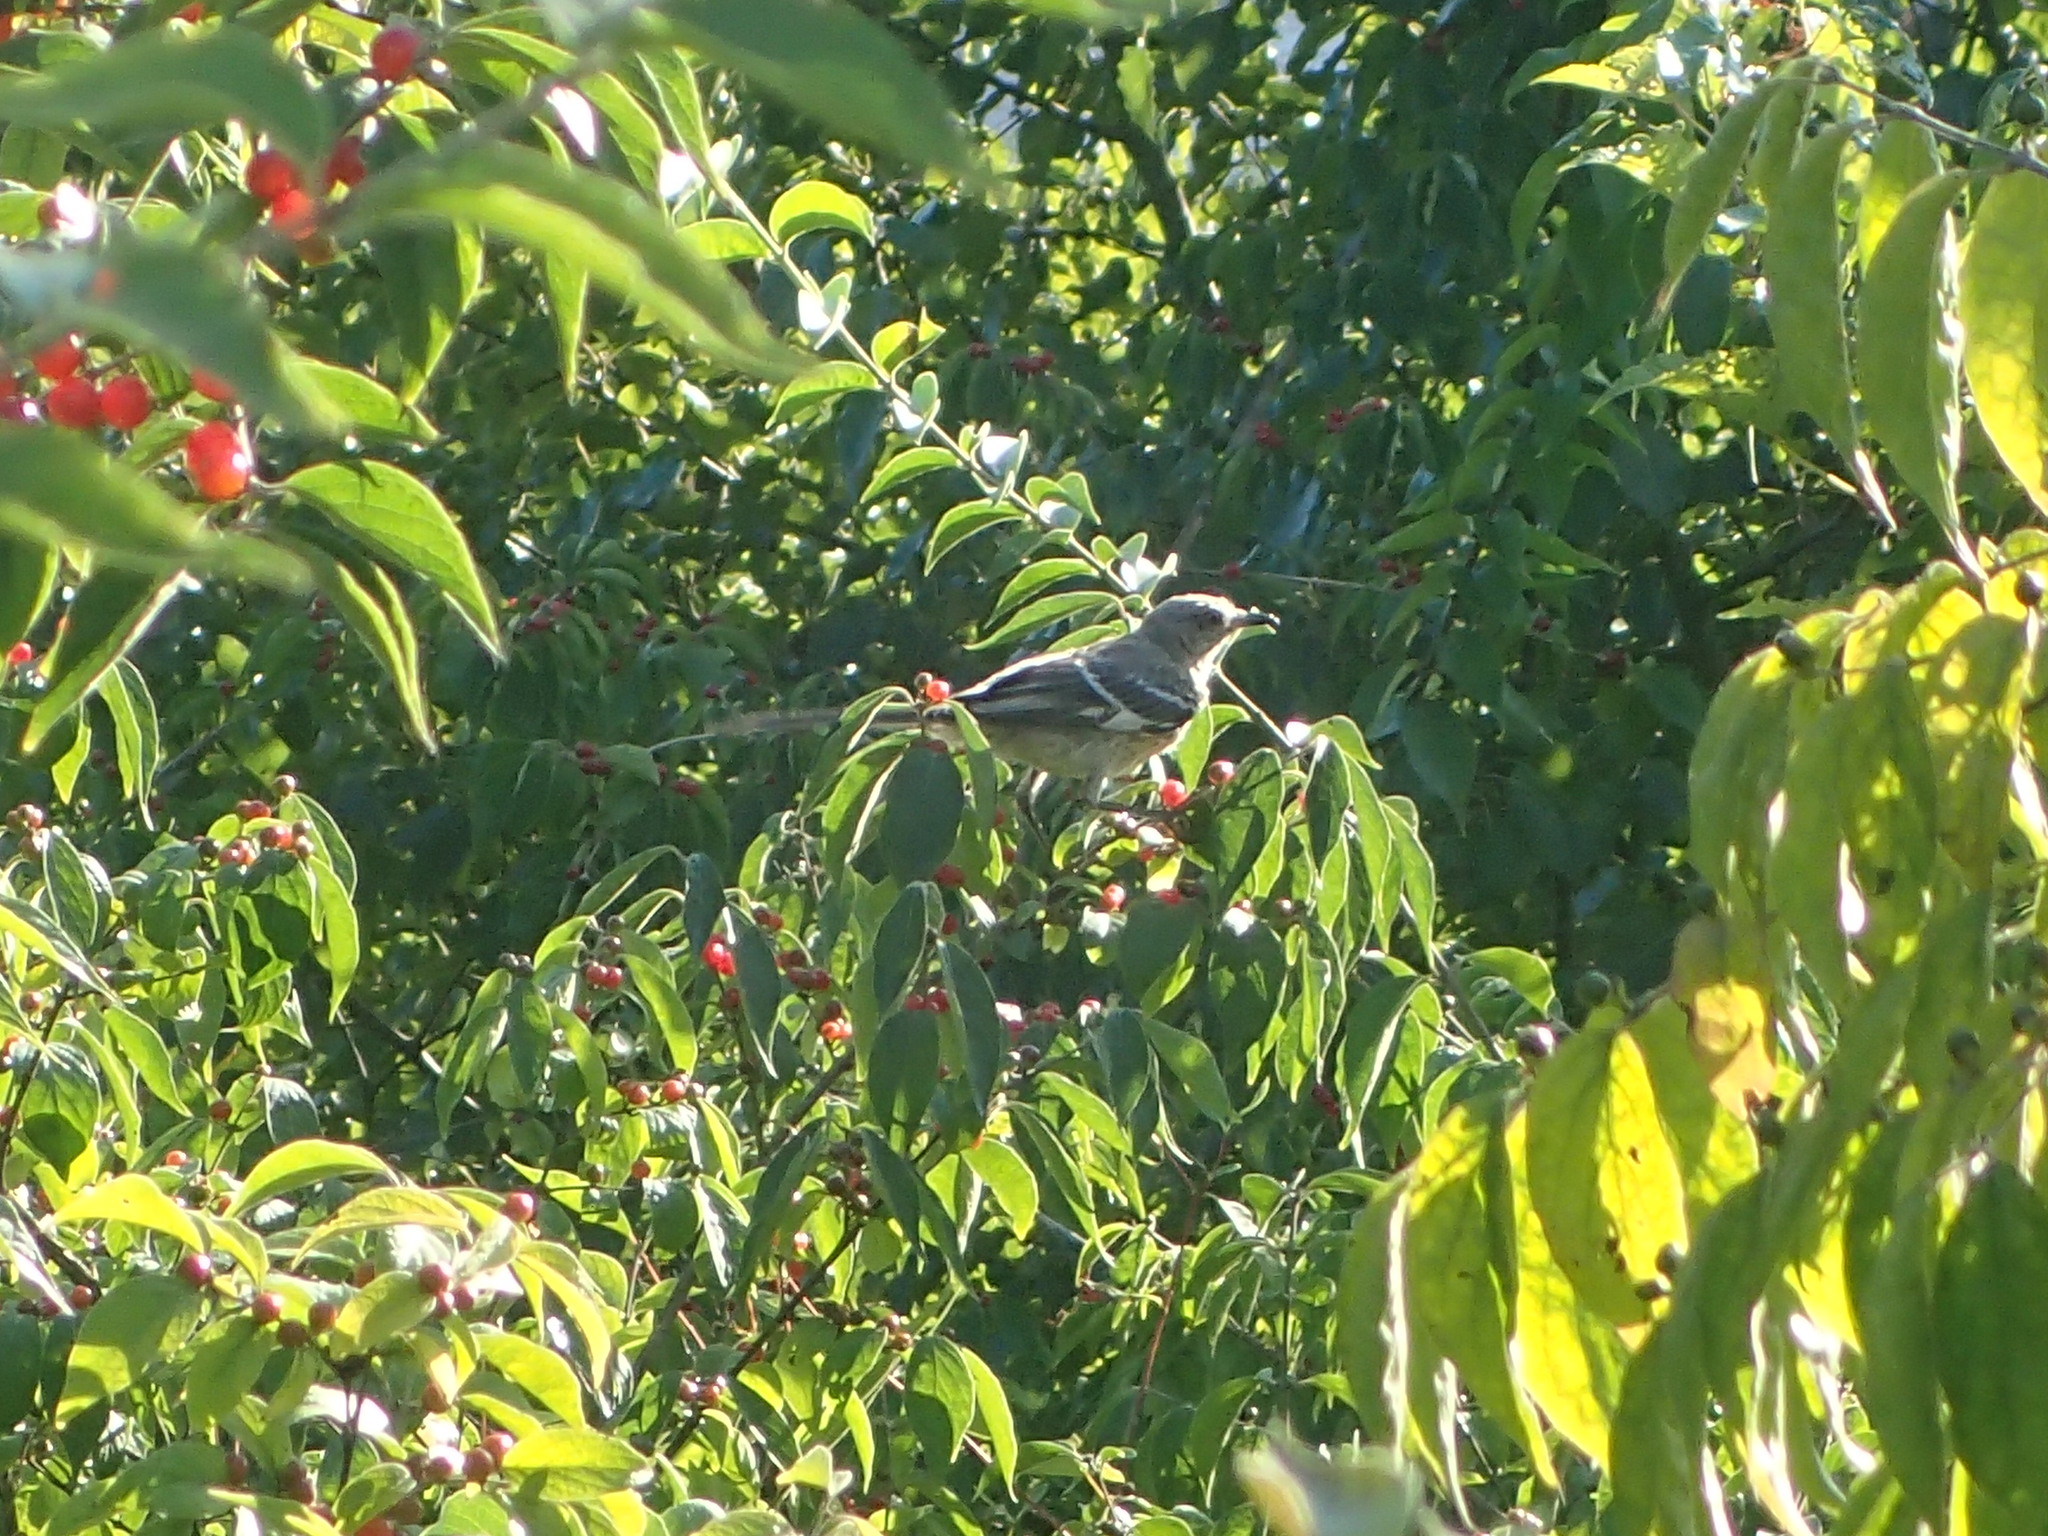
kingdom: Animalia
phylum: Chordata
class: Aves
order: Passeriformes
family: Mimidae
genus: Mimus
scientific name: Mimus polyglottos
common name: Northern mockingbird
